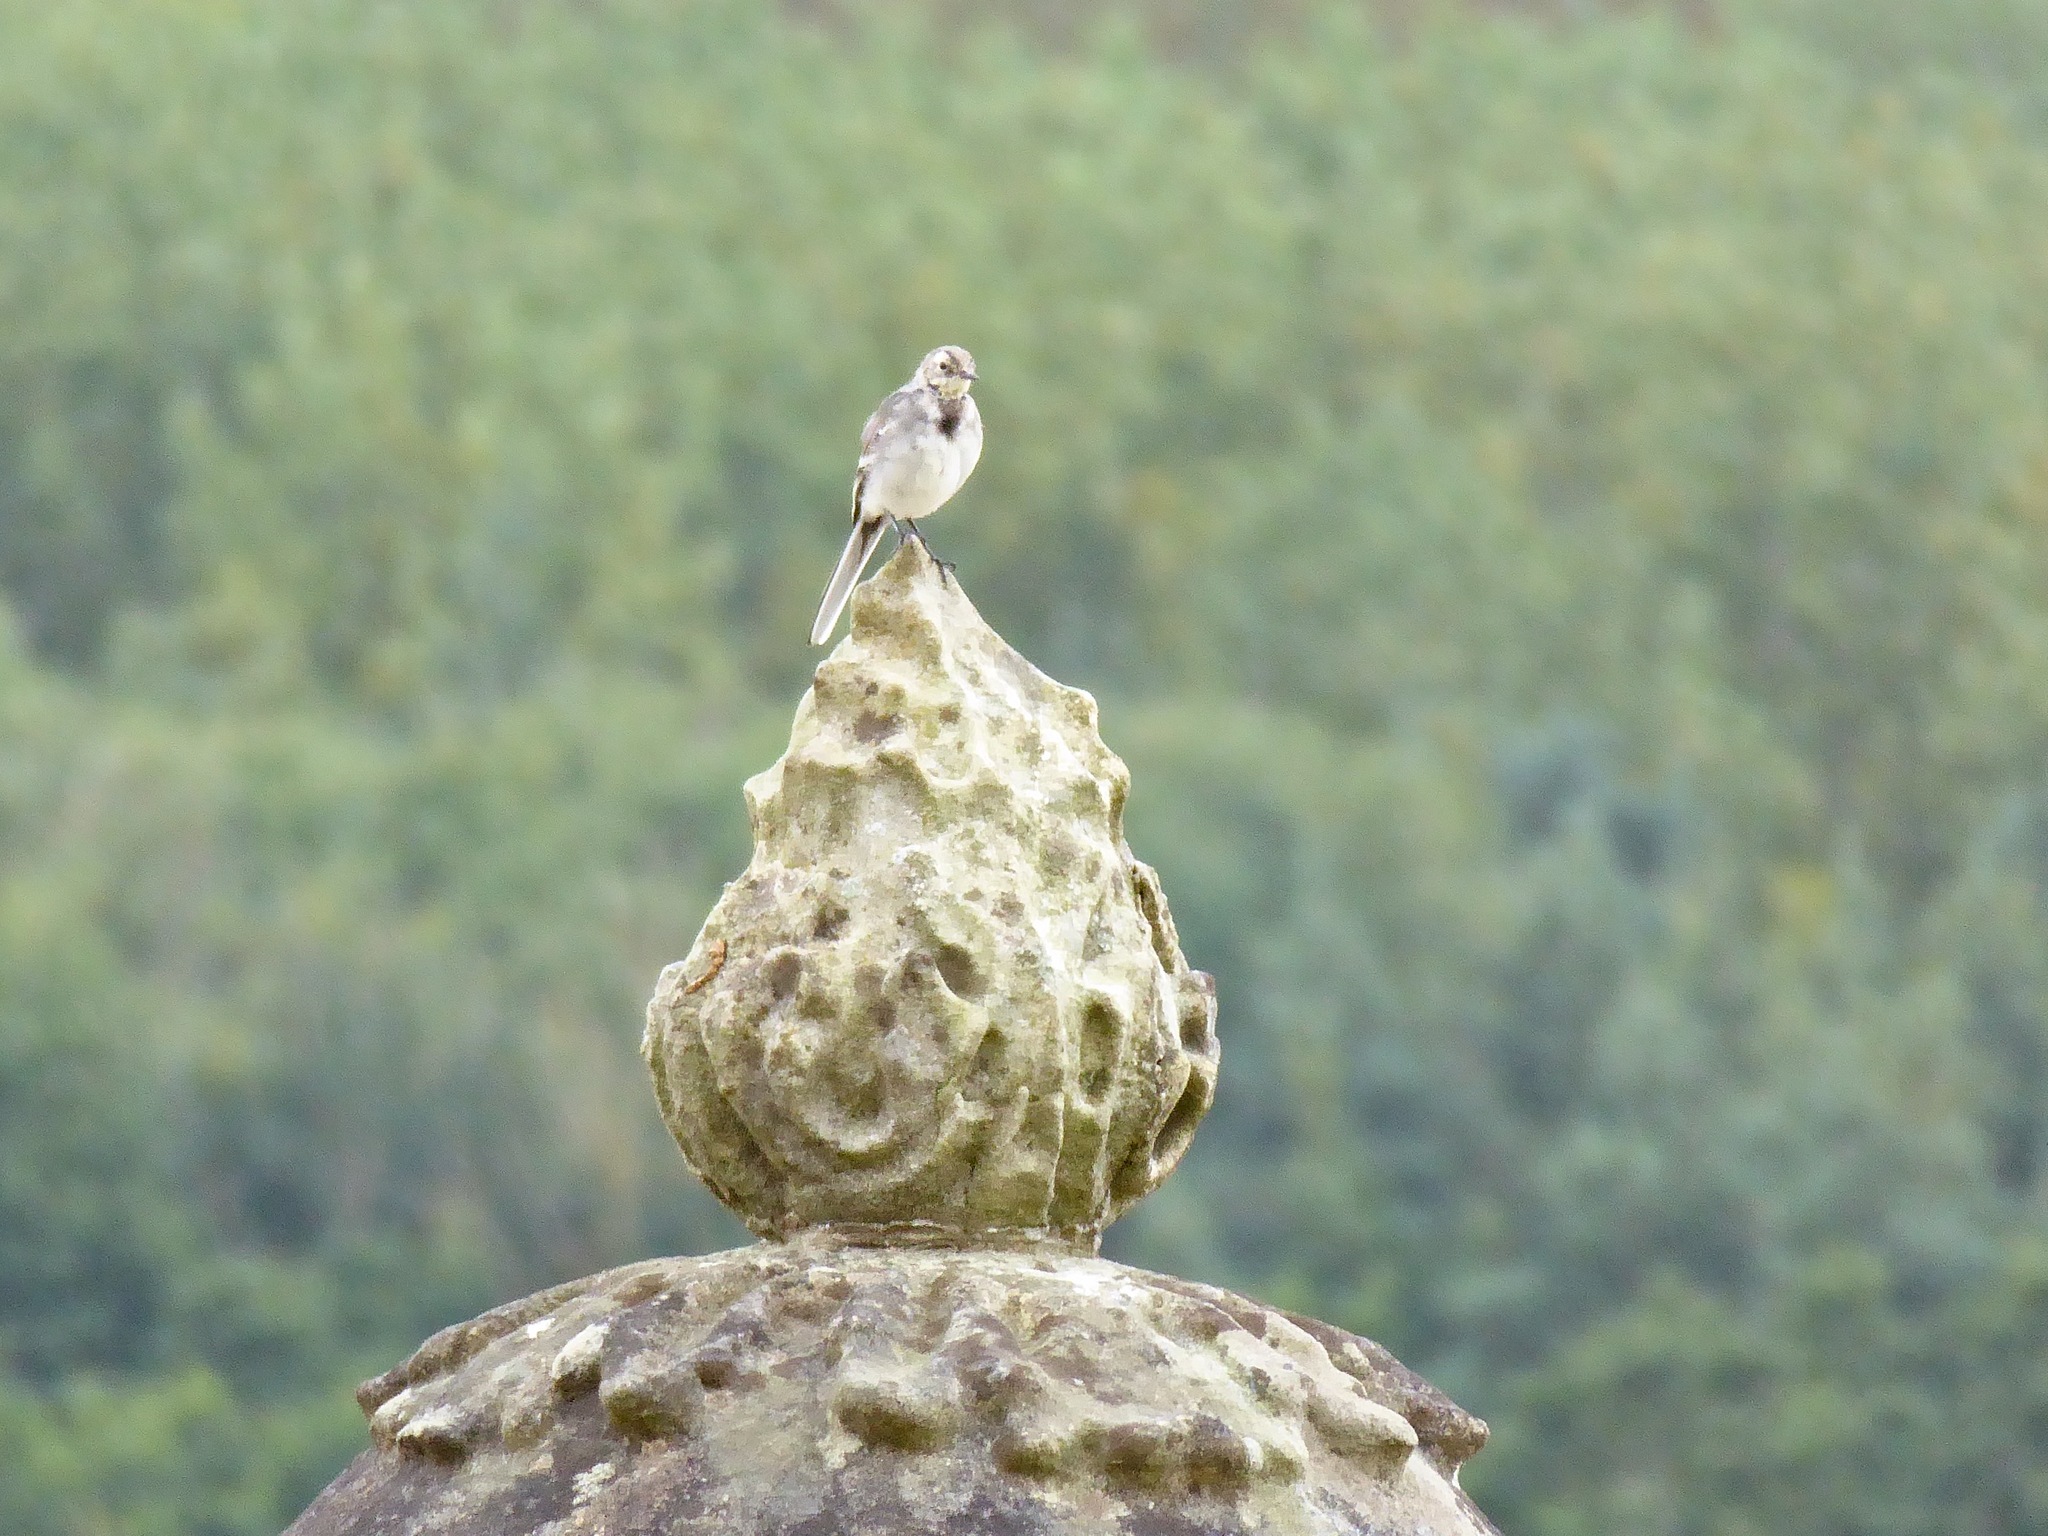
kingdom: Animalia
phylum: Chordata
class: Aves
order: Passeriformes
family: Motacillidae
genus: Motacilla
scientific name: Motacilla alba
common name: White wagtail
